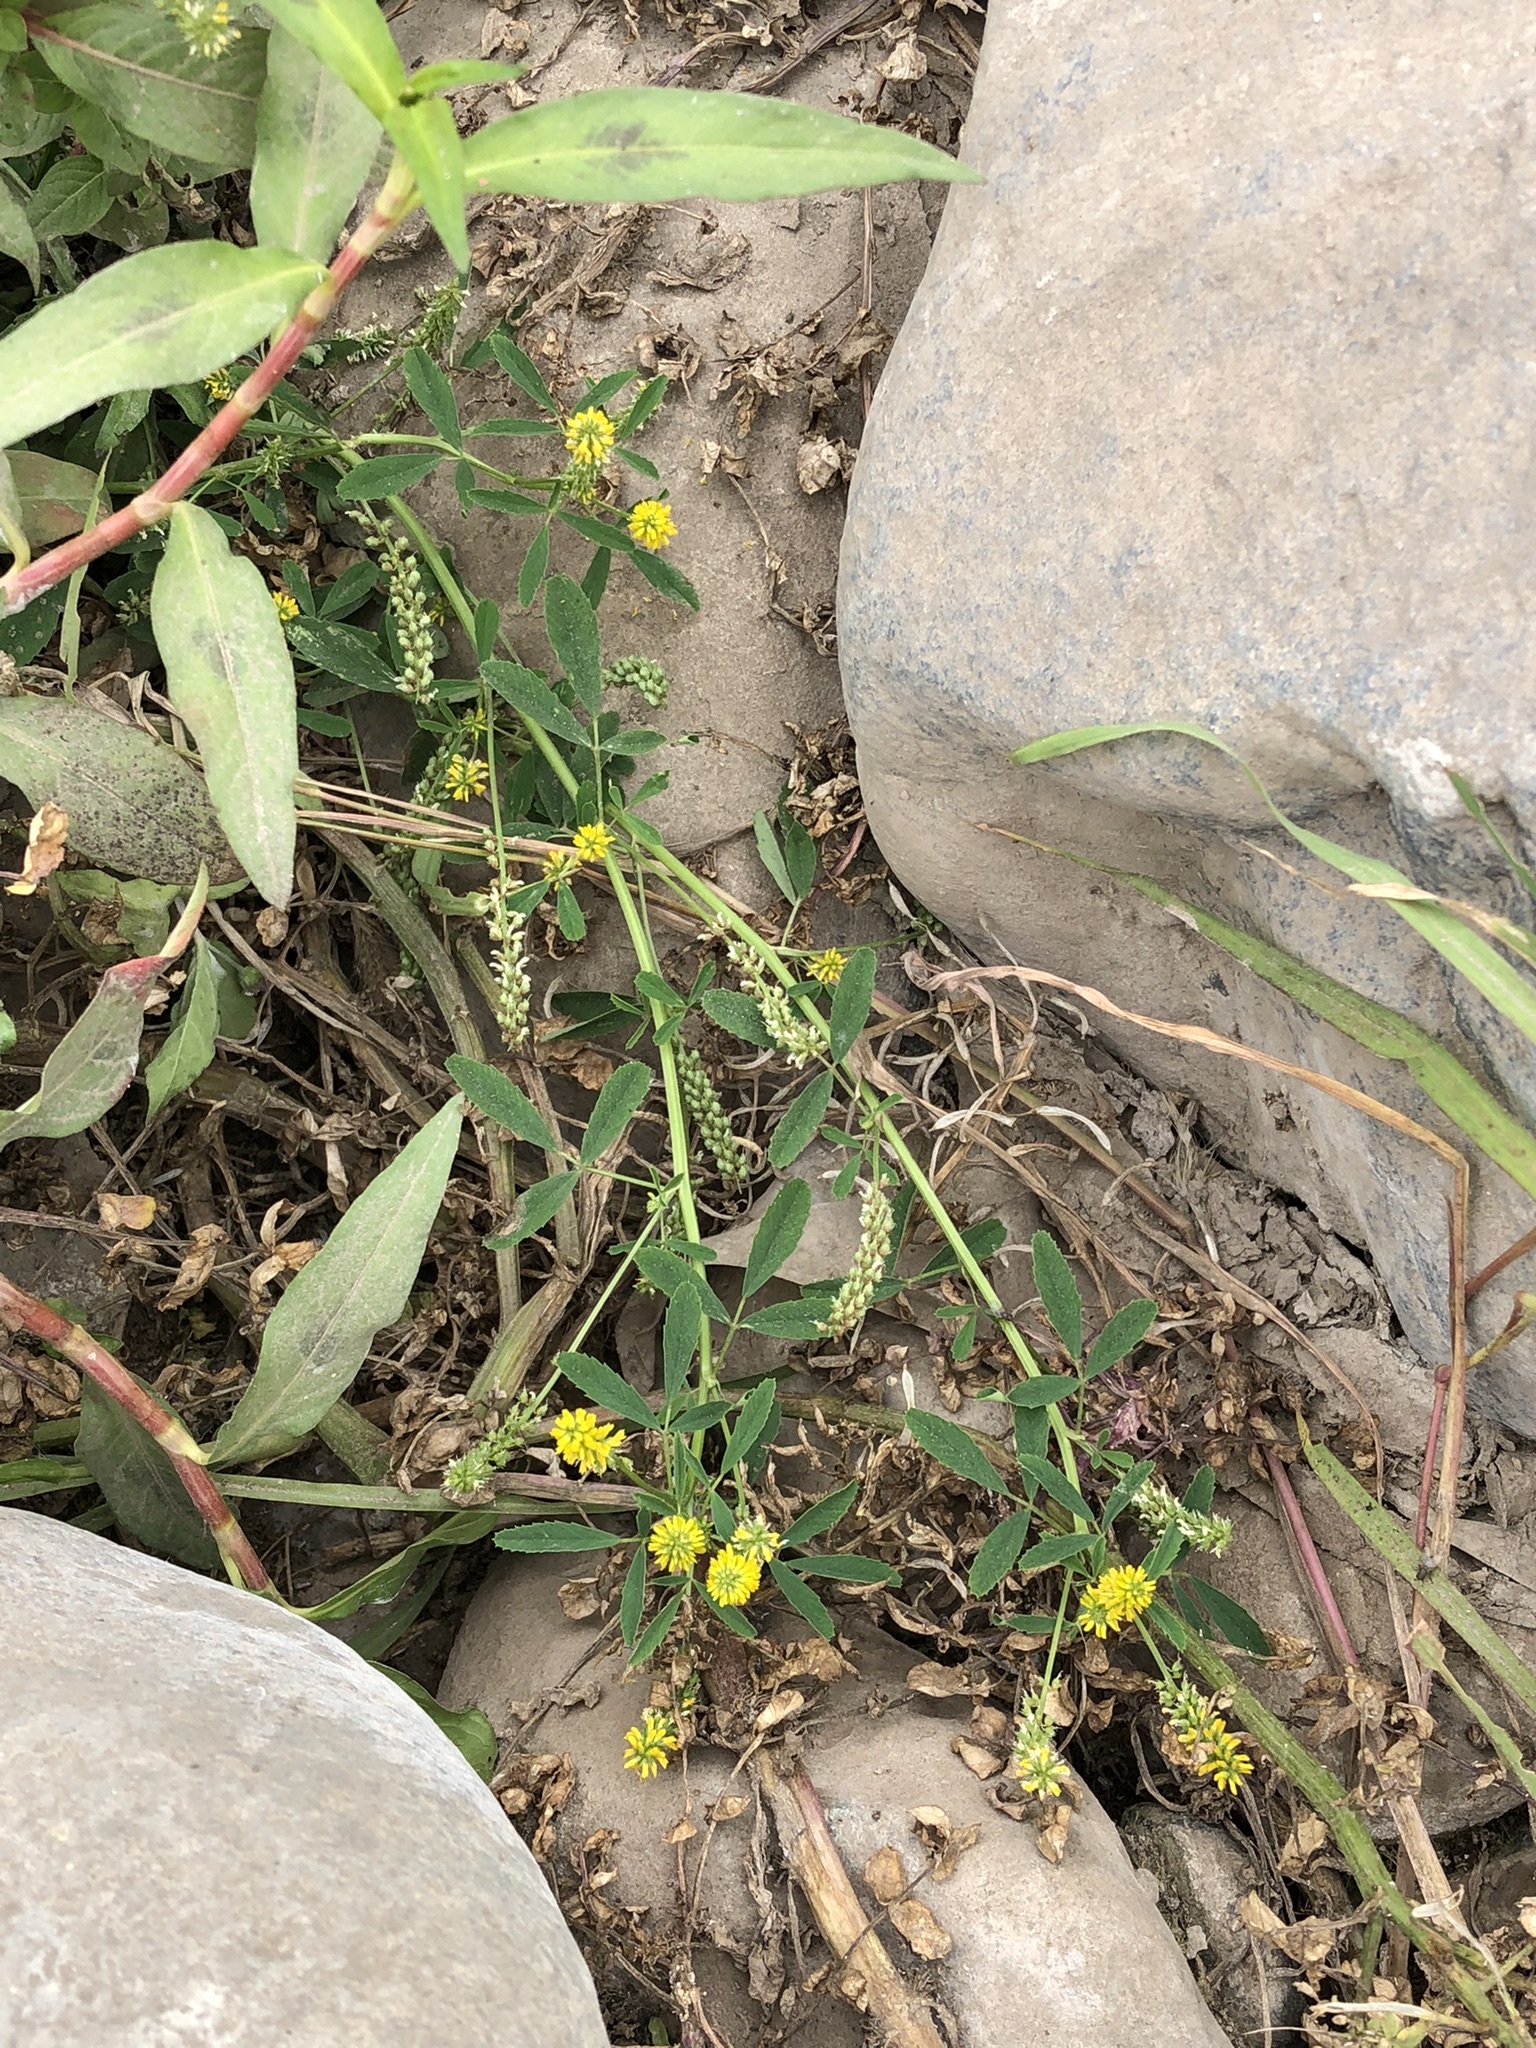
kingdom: Plantae
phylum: Tracheophyta
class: Magnoliopsida
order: Fabales
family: Fabaceae
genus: Melilotus
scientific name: Melilotus indicus
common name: Small melilot
